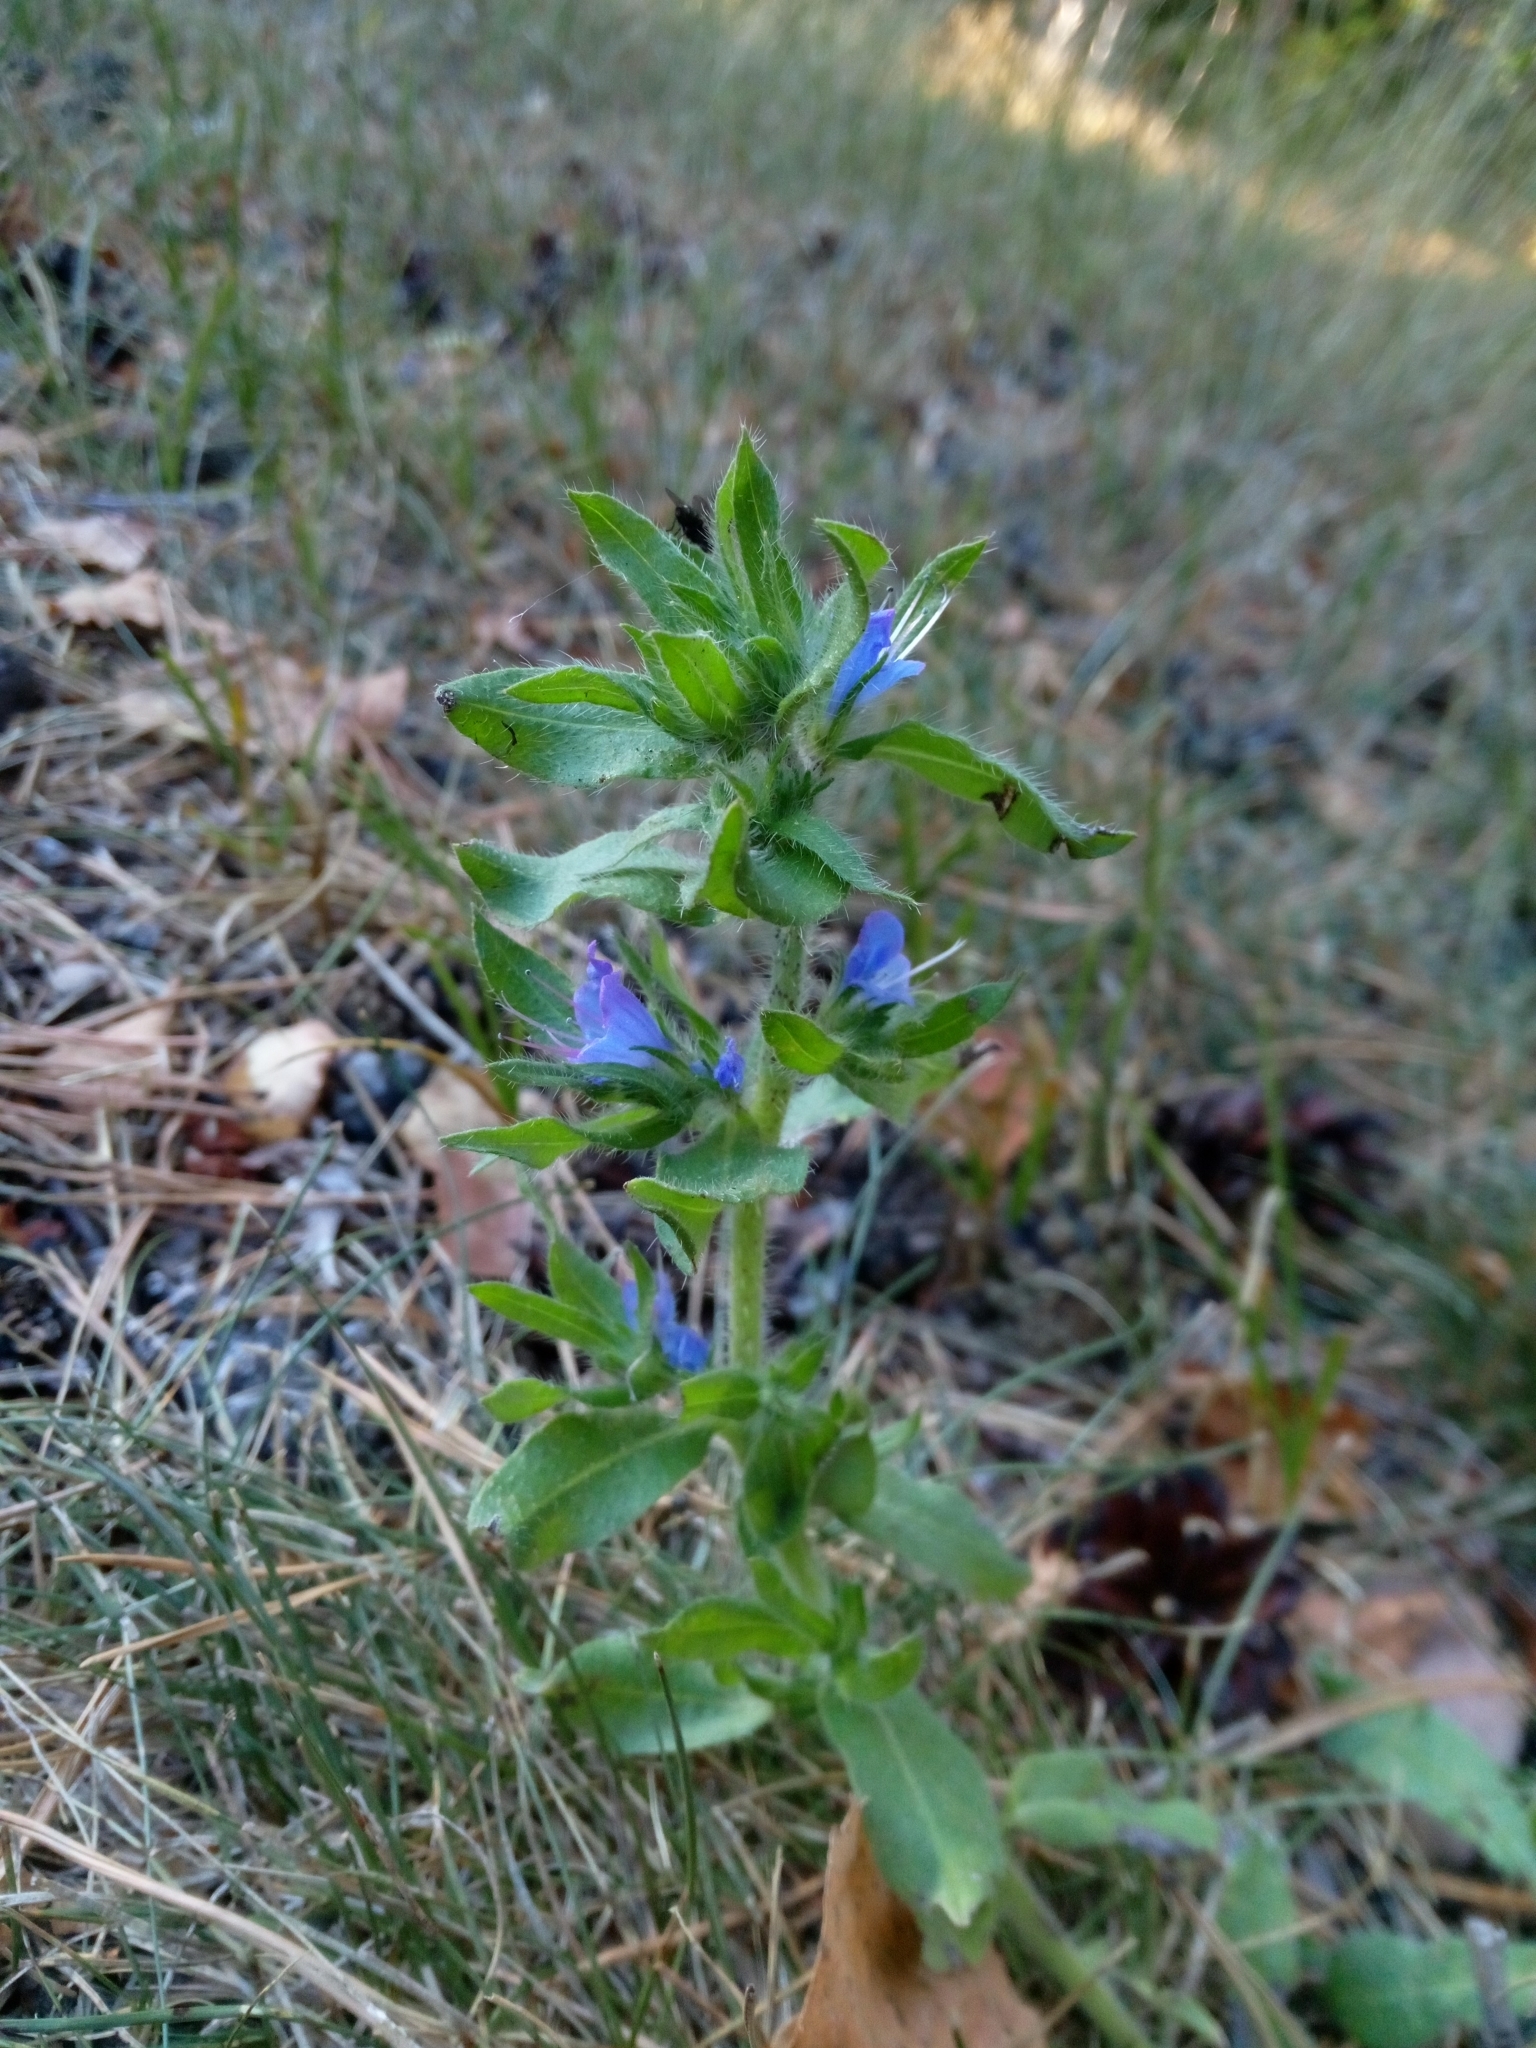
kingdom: Plantae
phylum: Tracheophyta
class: Magnoliopsida
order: Boraginales
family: Boraginaceae
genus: Echium
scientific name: Echium vulgare
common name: Common viper's bugloss
